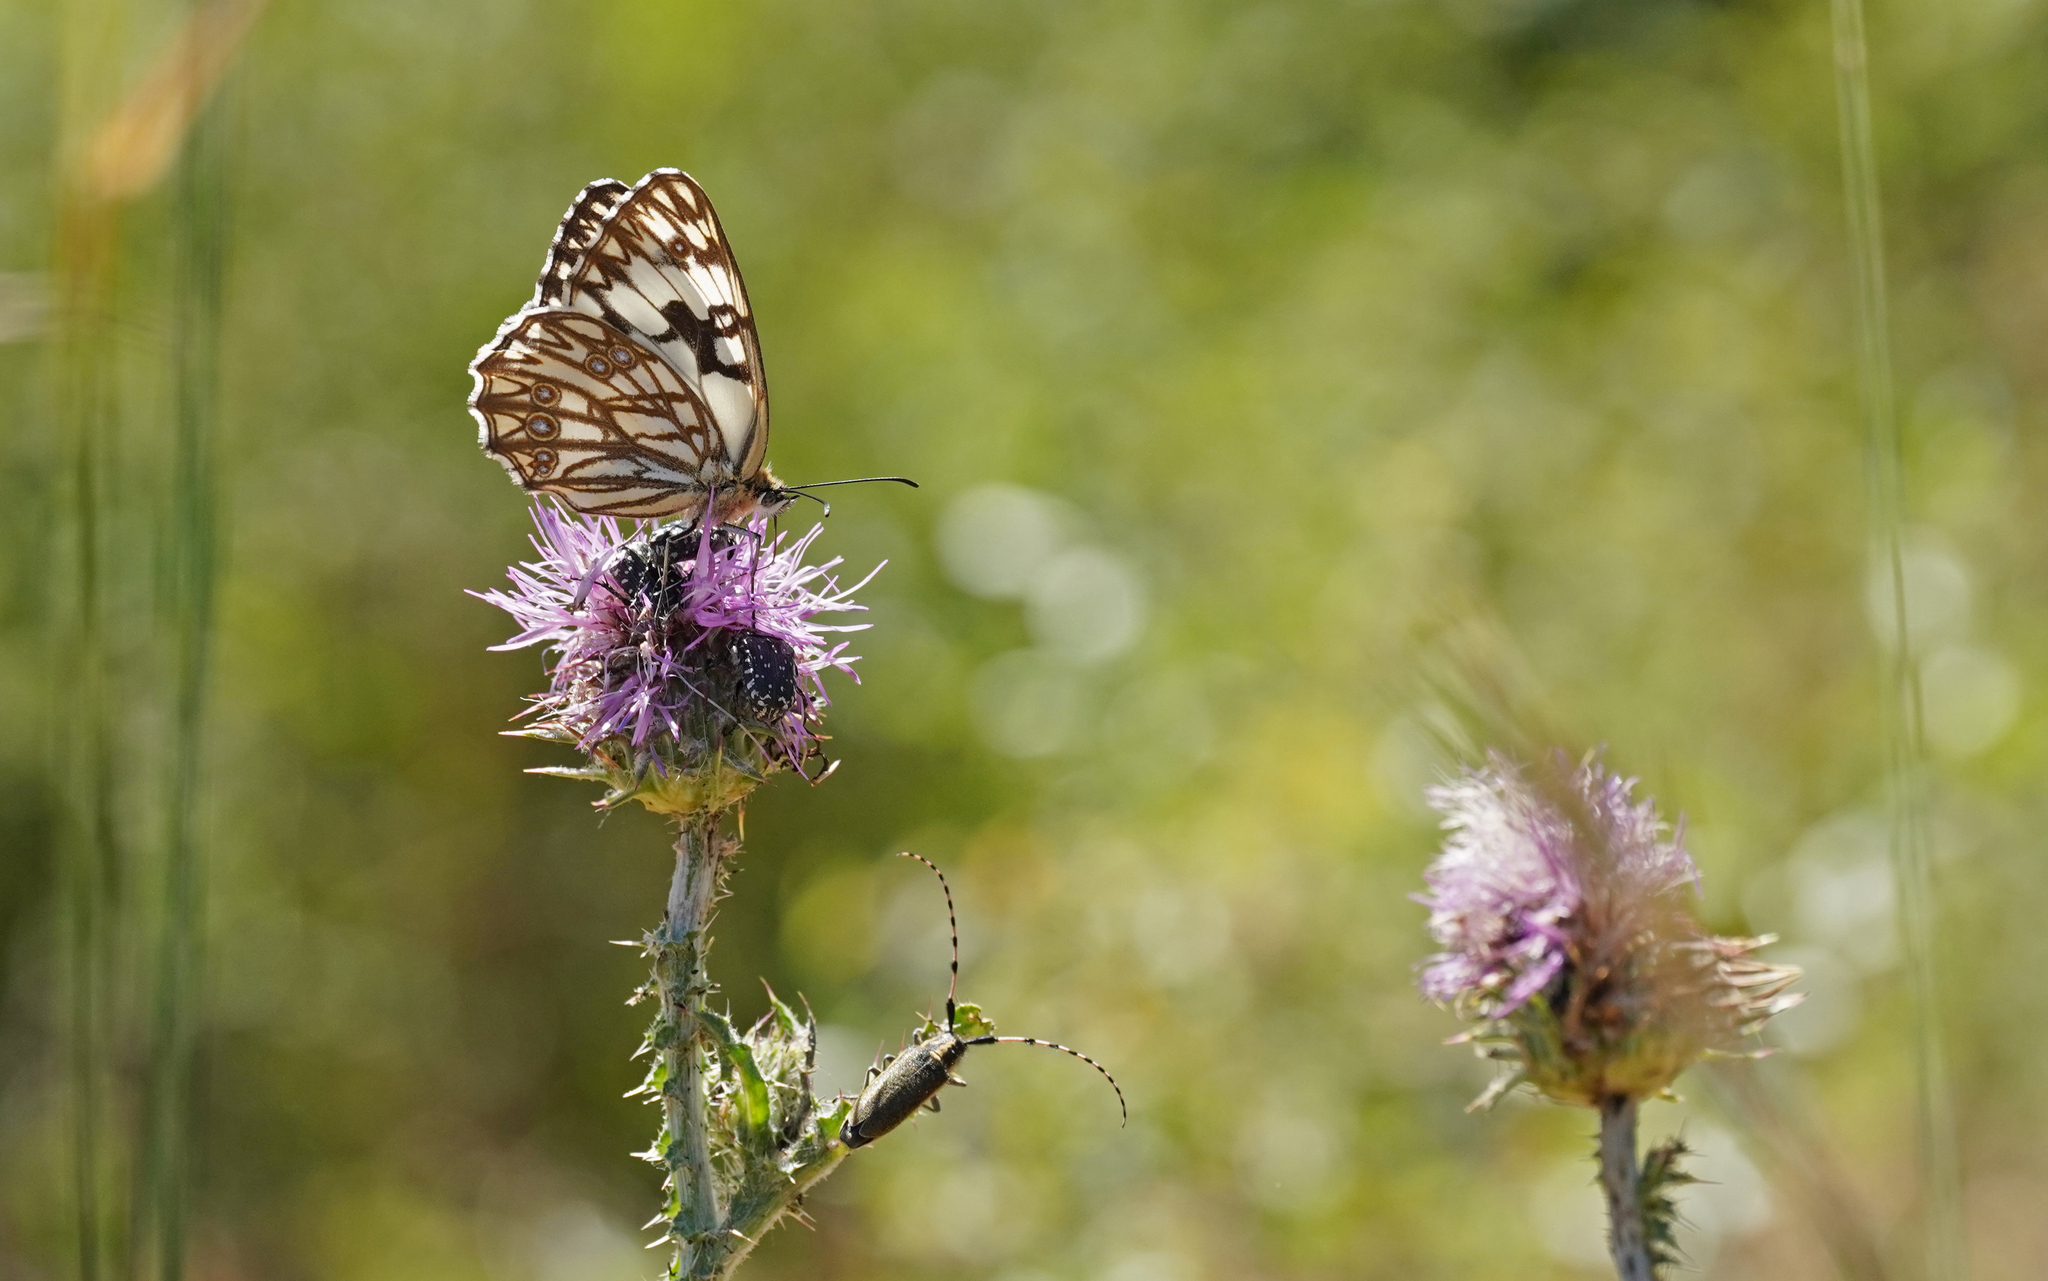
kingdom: Animalia
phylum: Arthropoda
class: Insecta
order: Lepidoptera
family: Nymphalidae
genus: Melanargia
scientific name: Melanargia occitanica
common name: Western marbled white
